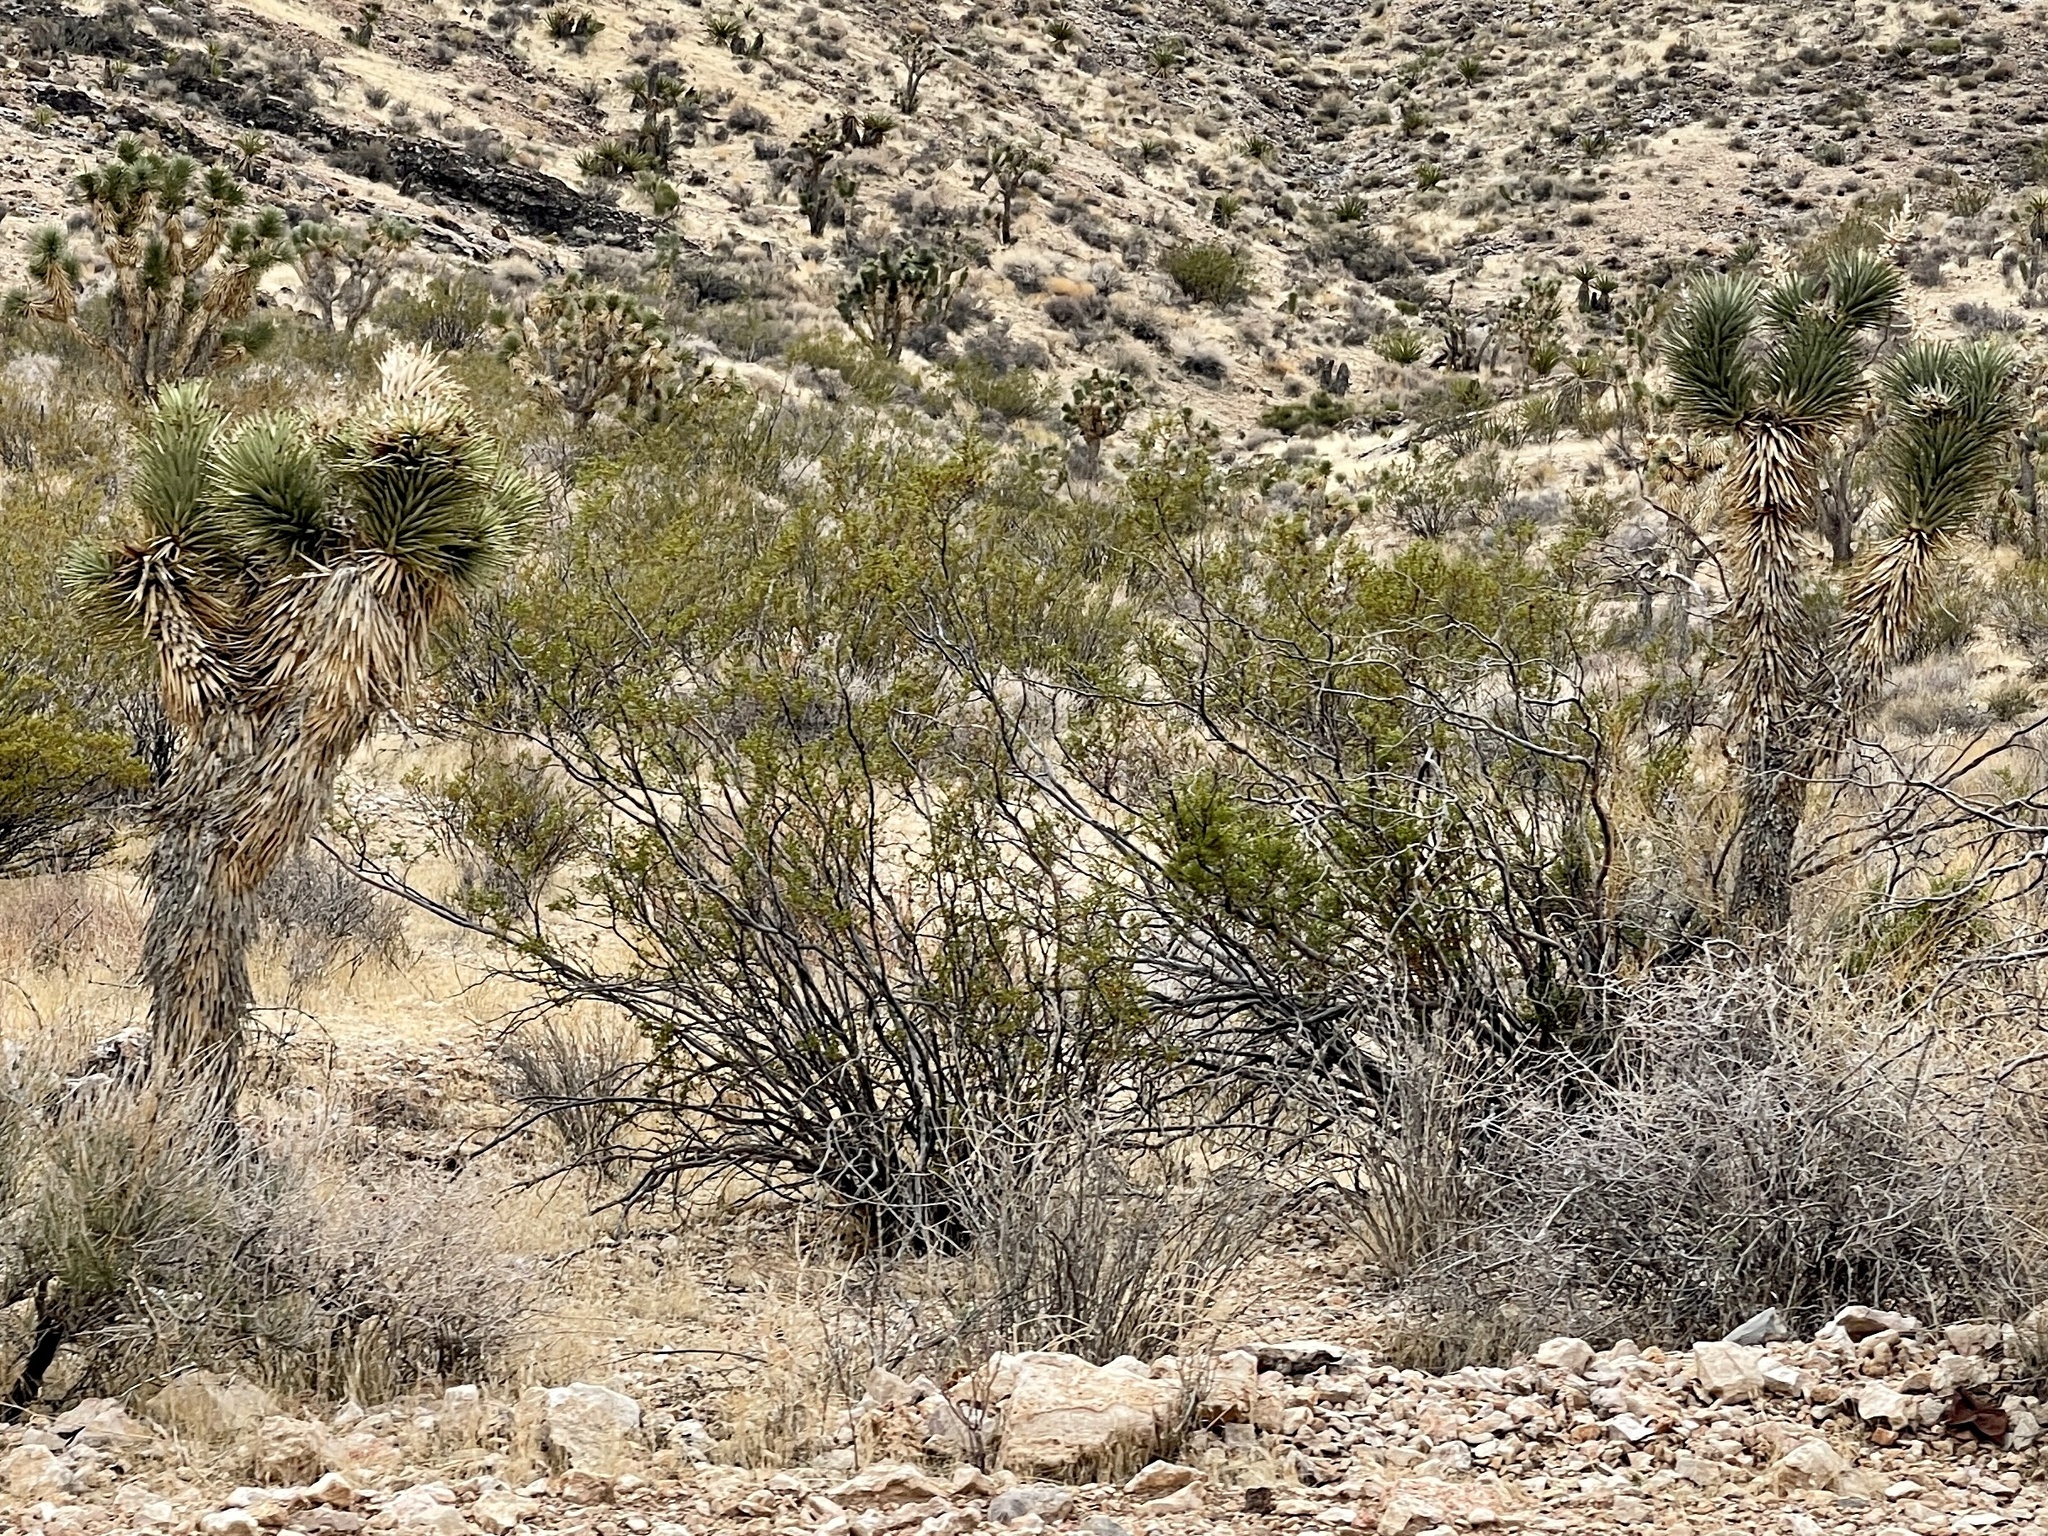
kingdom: Plantae
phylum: Tracheophyta
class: Magnoliopsida
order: Zygophyllales
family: Zygophyllaceae
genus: Larrea
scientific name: Larrea tridentata
